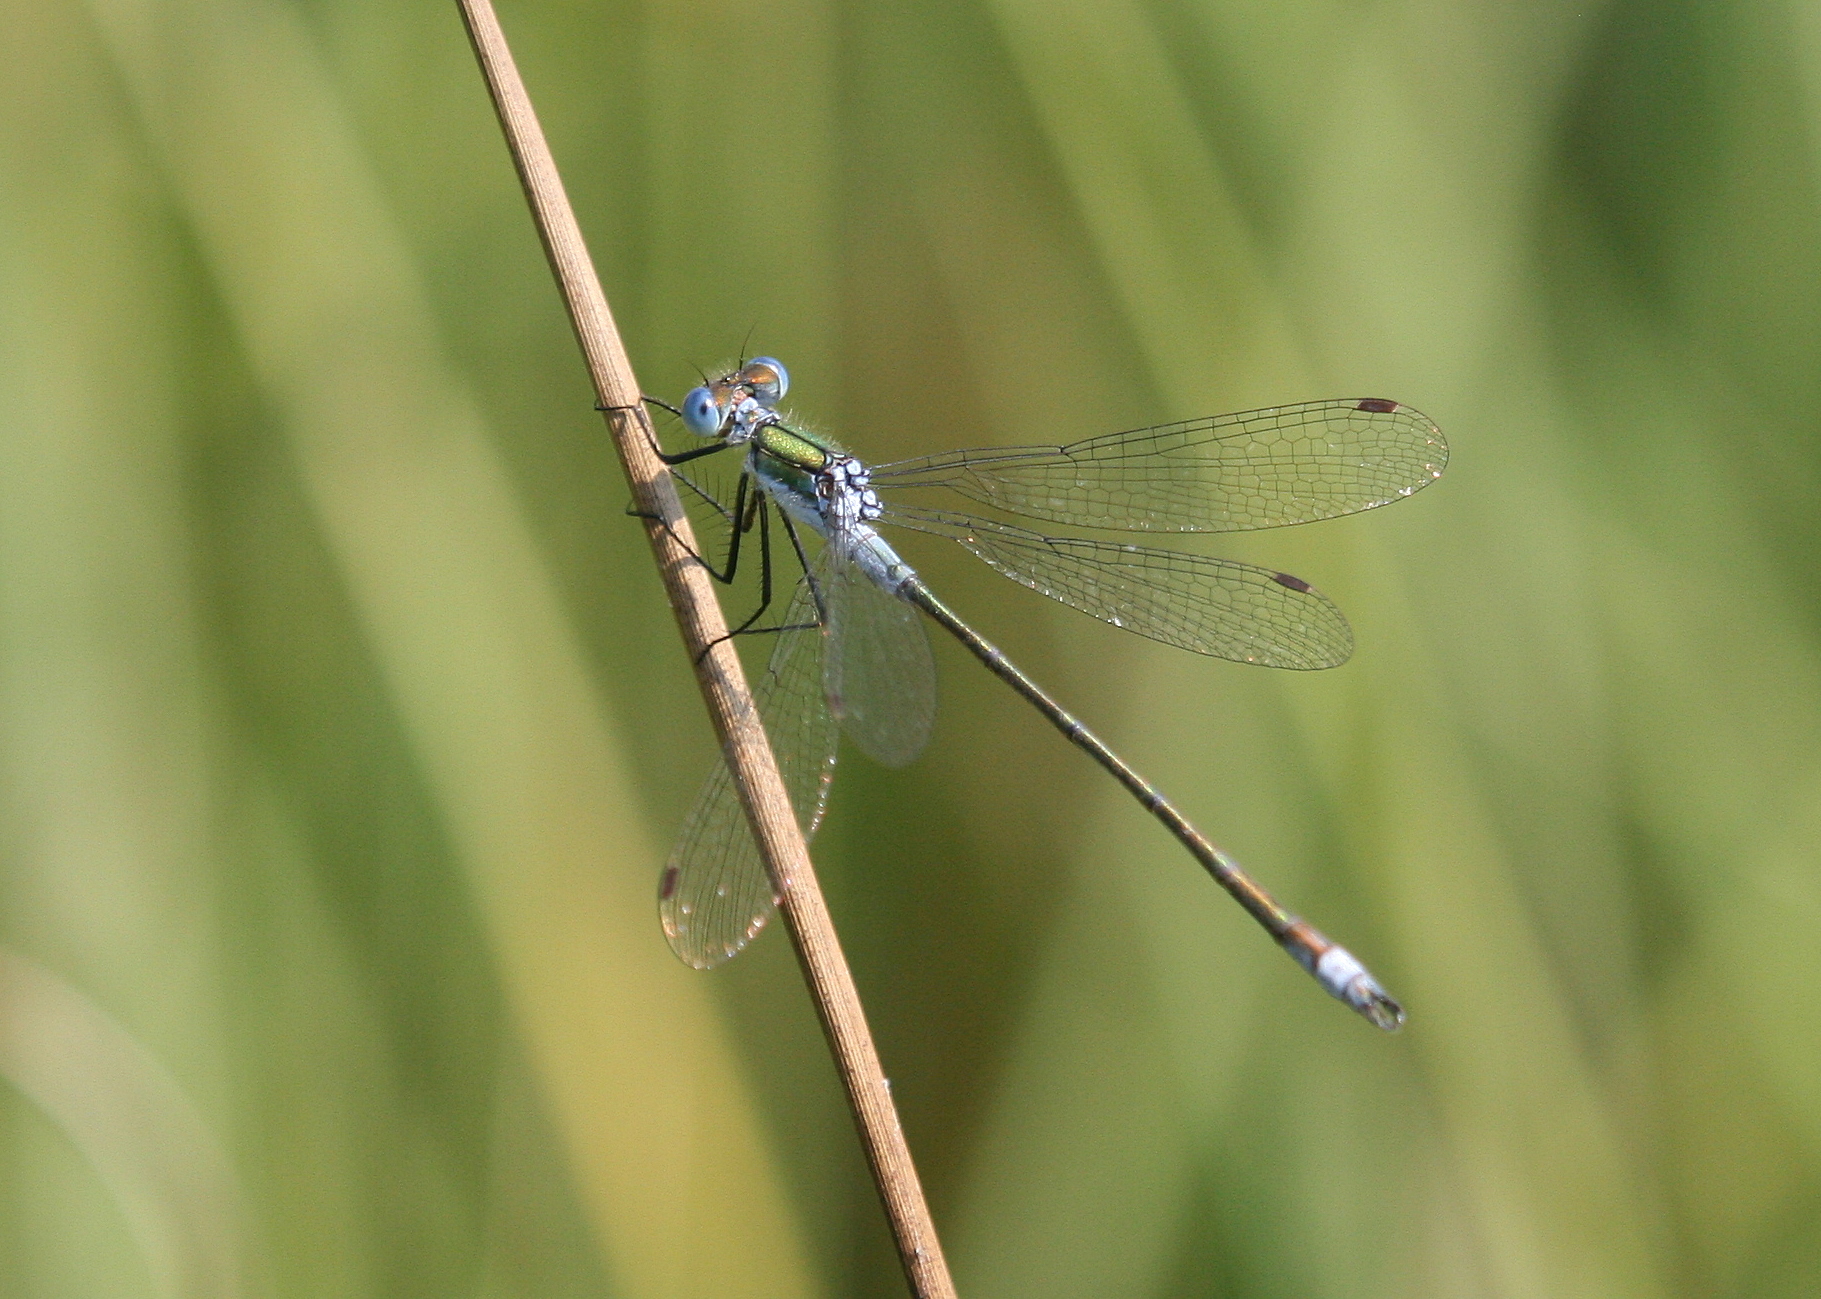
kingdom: Animalia
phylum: Arthropoda
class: Insecta
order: Odonata
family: Lestidae
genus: Lestes
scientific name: Lestes sponsa
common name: Common spreadwing
